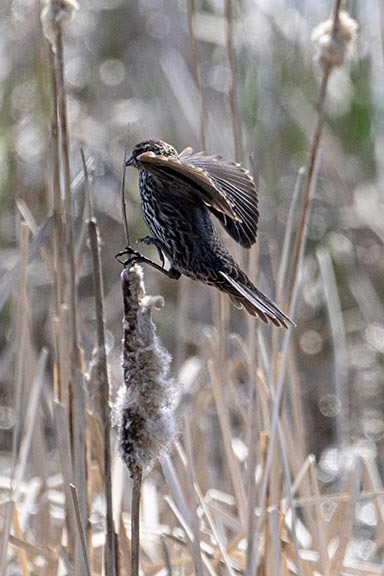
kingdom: Animalia
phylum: Chordata
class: Aves
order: Passeriformes
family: Icteridae
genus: Agelaius
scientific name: Agelaius phoeniceus
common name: Red-winged blackbird
